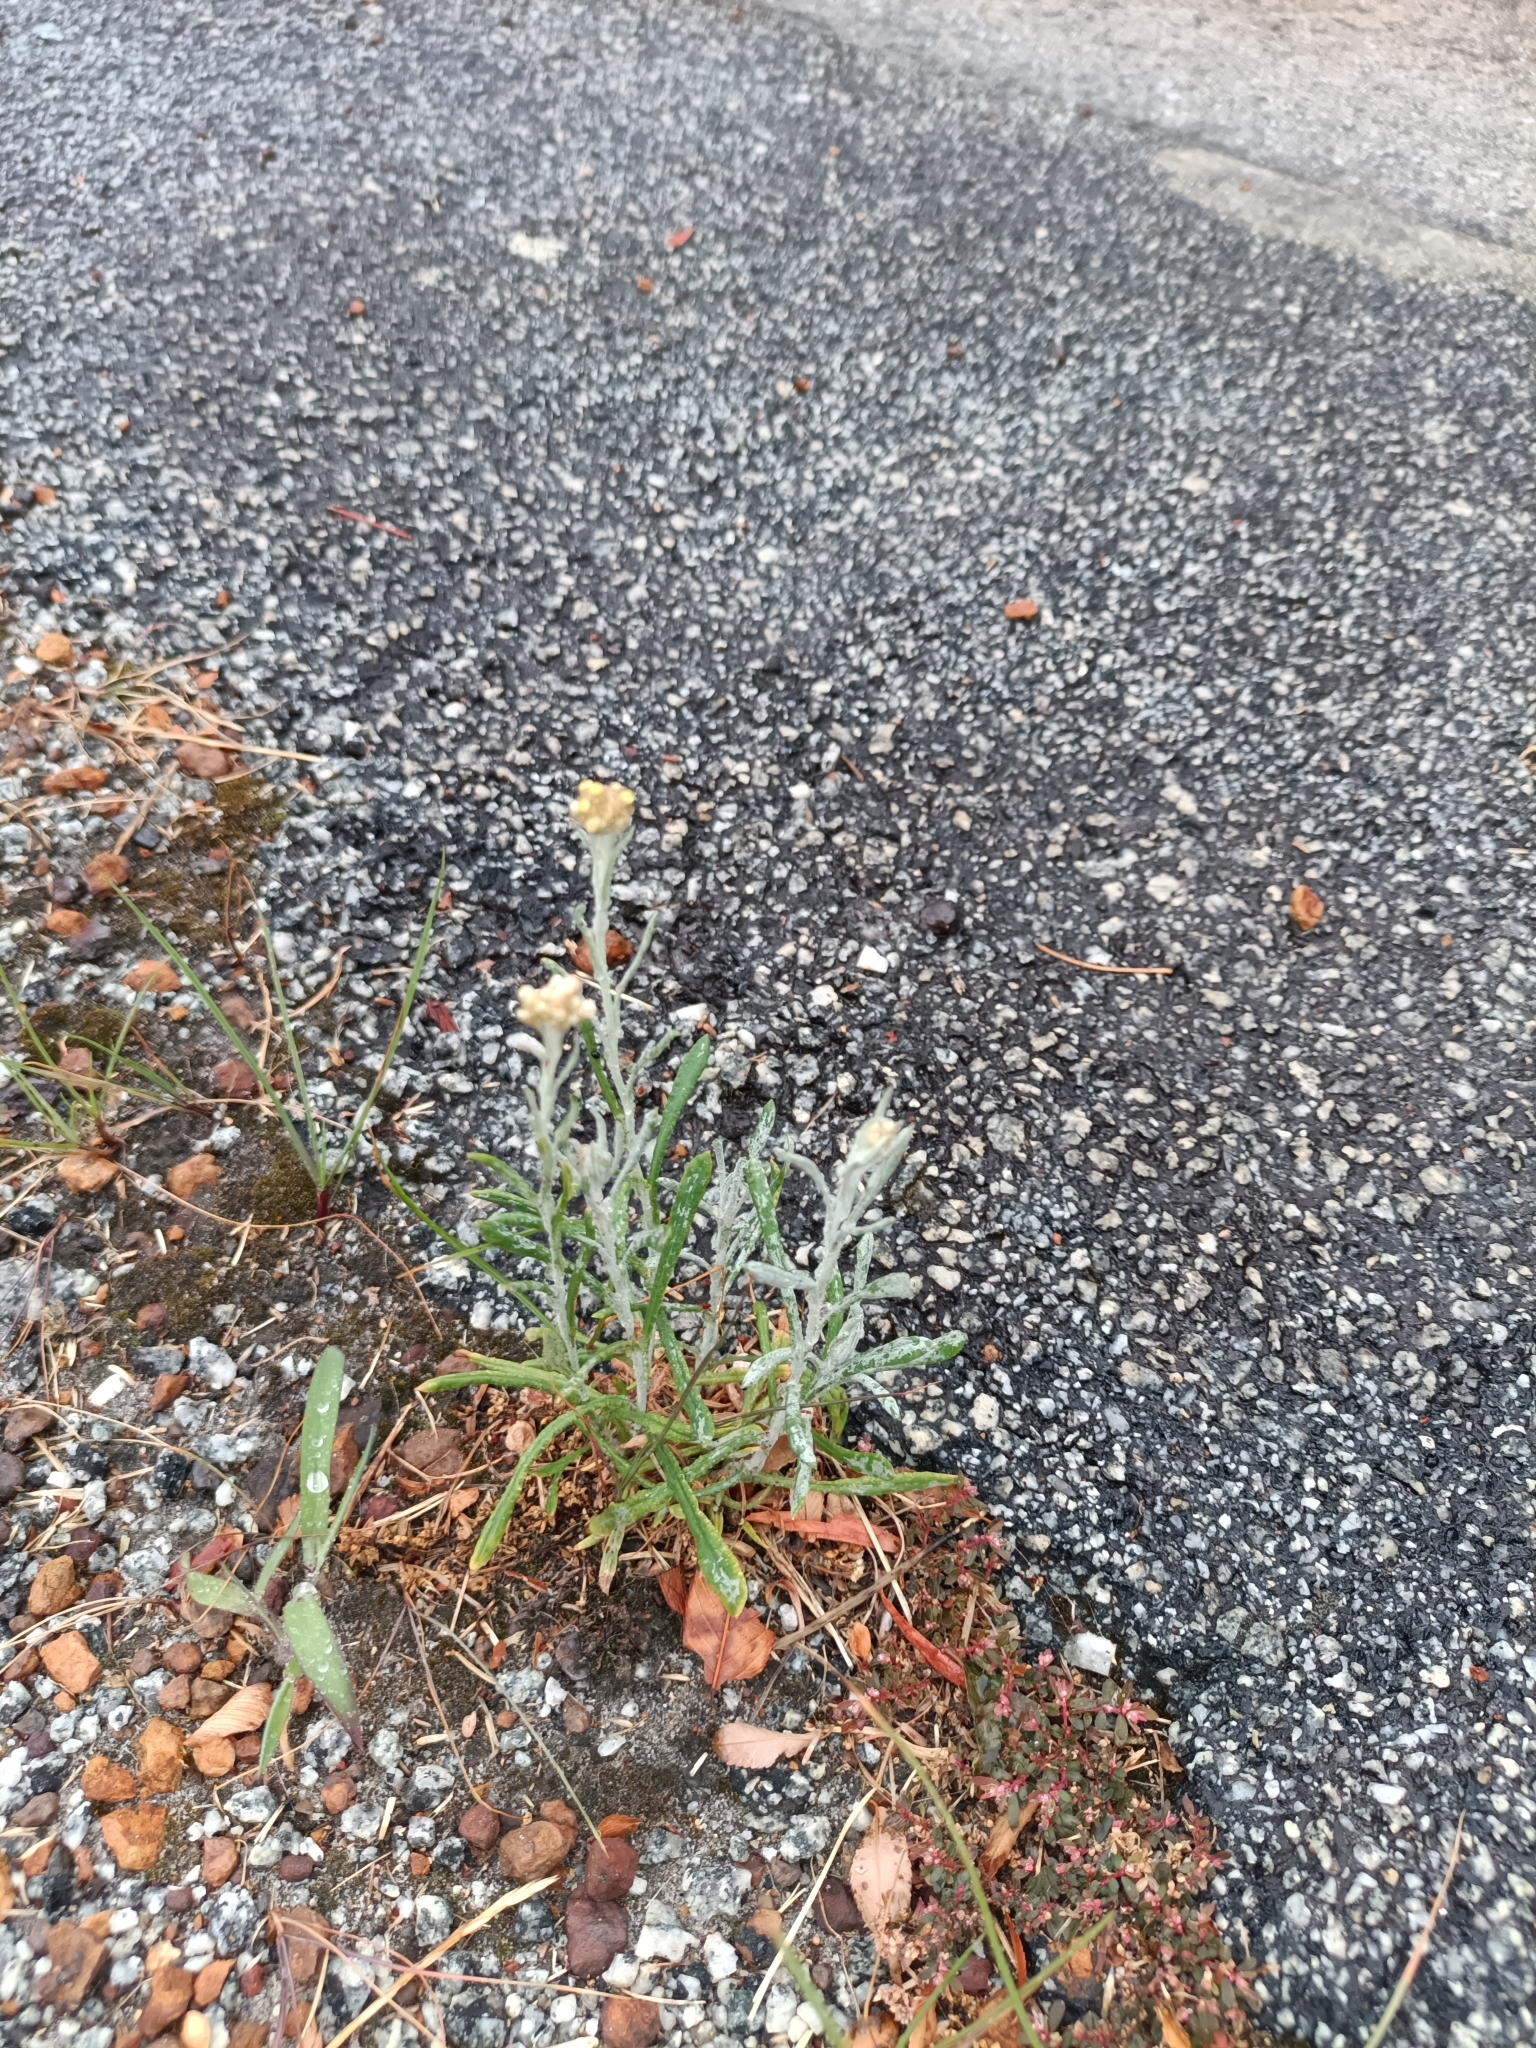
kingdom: Plantae
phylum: Tracheophyta
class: Magnoliopsida
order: Asterales
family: Asteraceae
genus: Helichrysum
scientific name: Helichrysum luteoalbum
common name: Daisy
